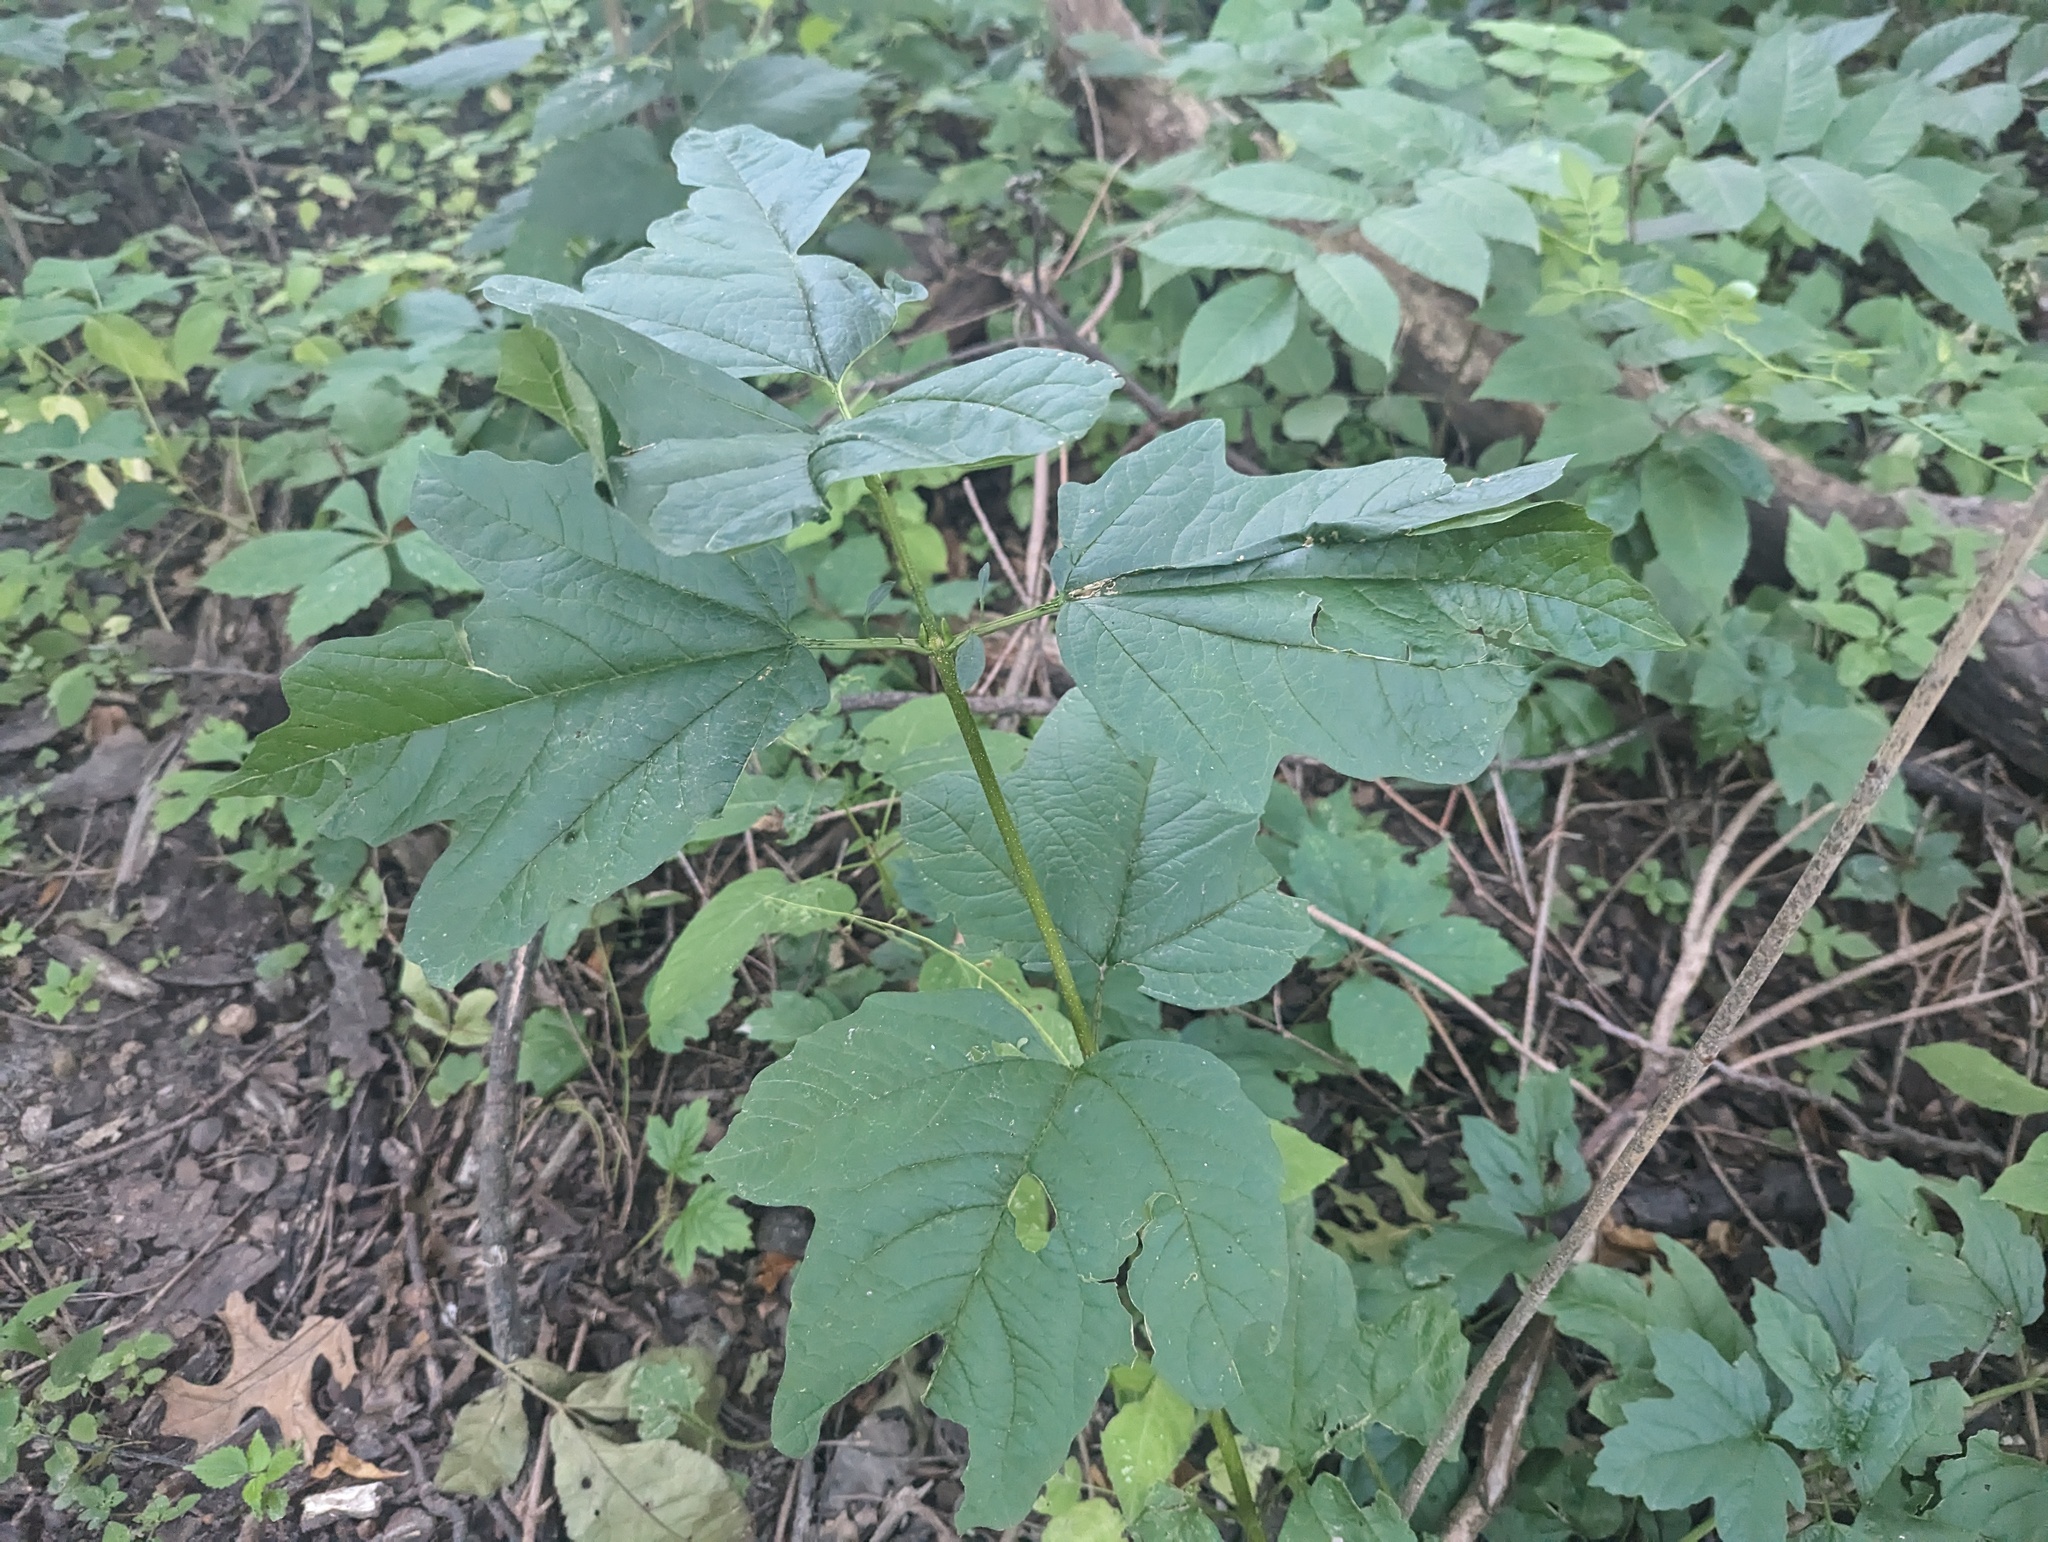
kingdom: Plantae
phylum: Tracheophyta
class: Magnoliopsida
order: Dipsacales
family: Viburnaceae
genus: Viburnum
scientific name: Viburnum opulus
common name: Guelder-rose
